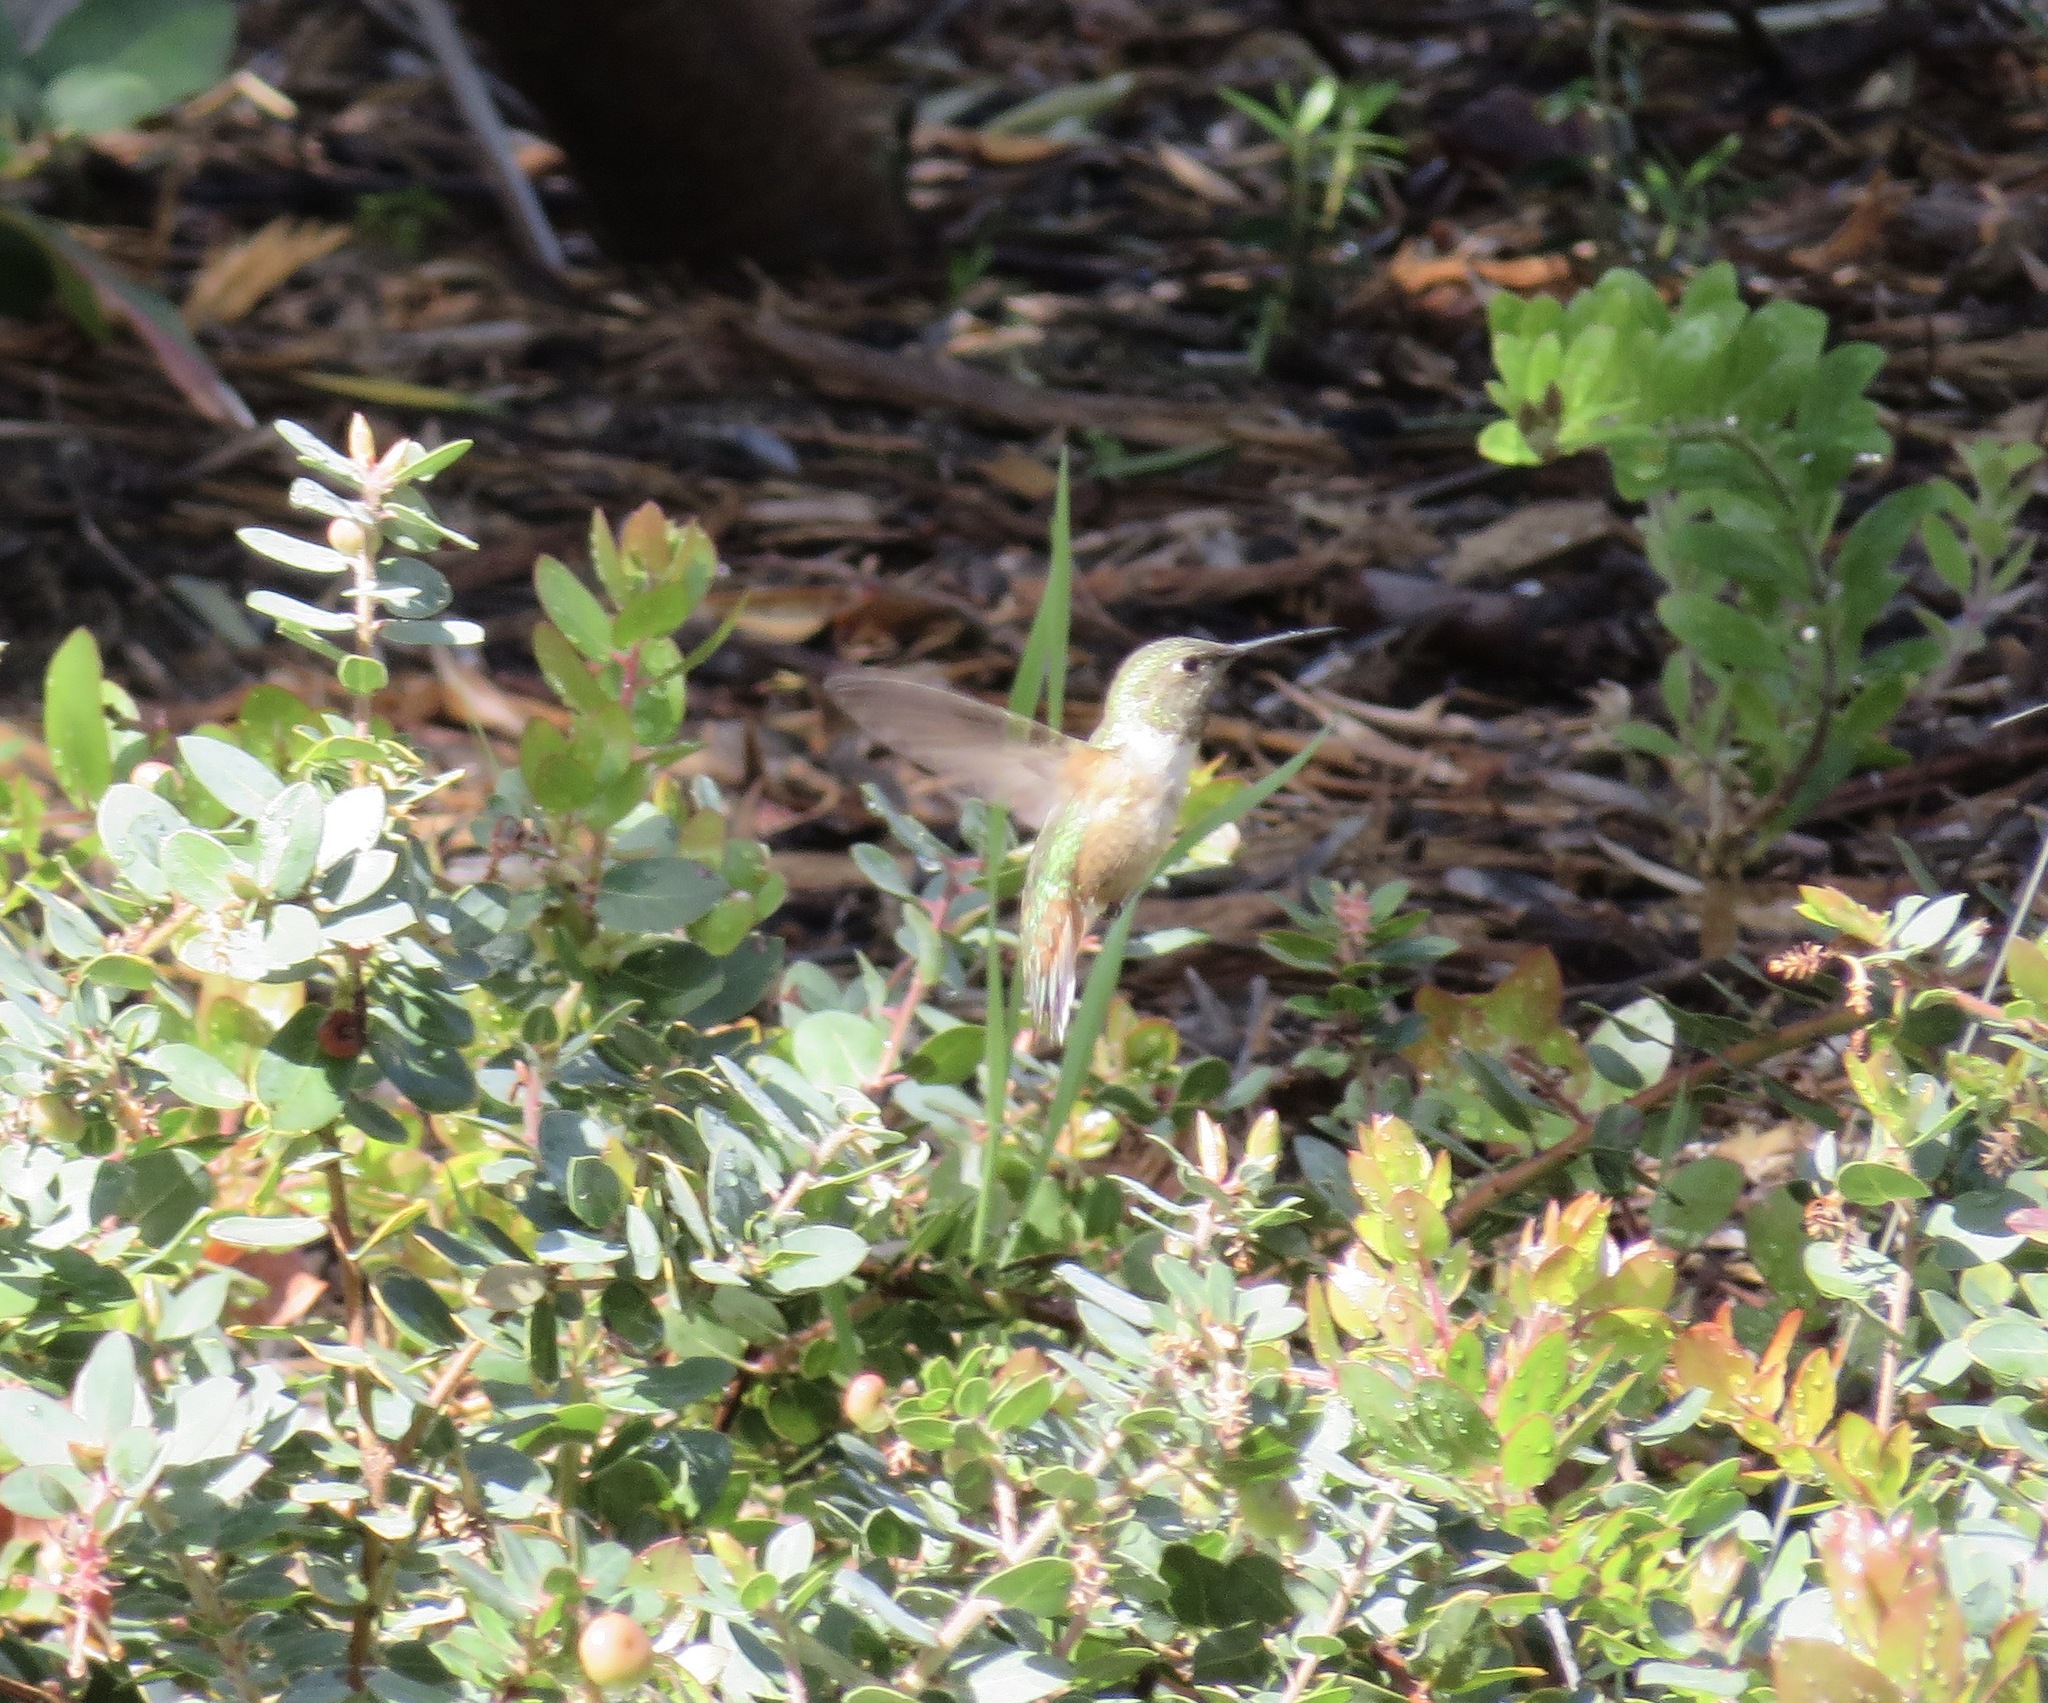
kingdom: Animalia
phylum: Chordata
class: Aves
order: Apodiformes
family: Trochilidae
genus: Selasphorus
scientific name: Selasphorus
